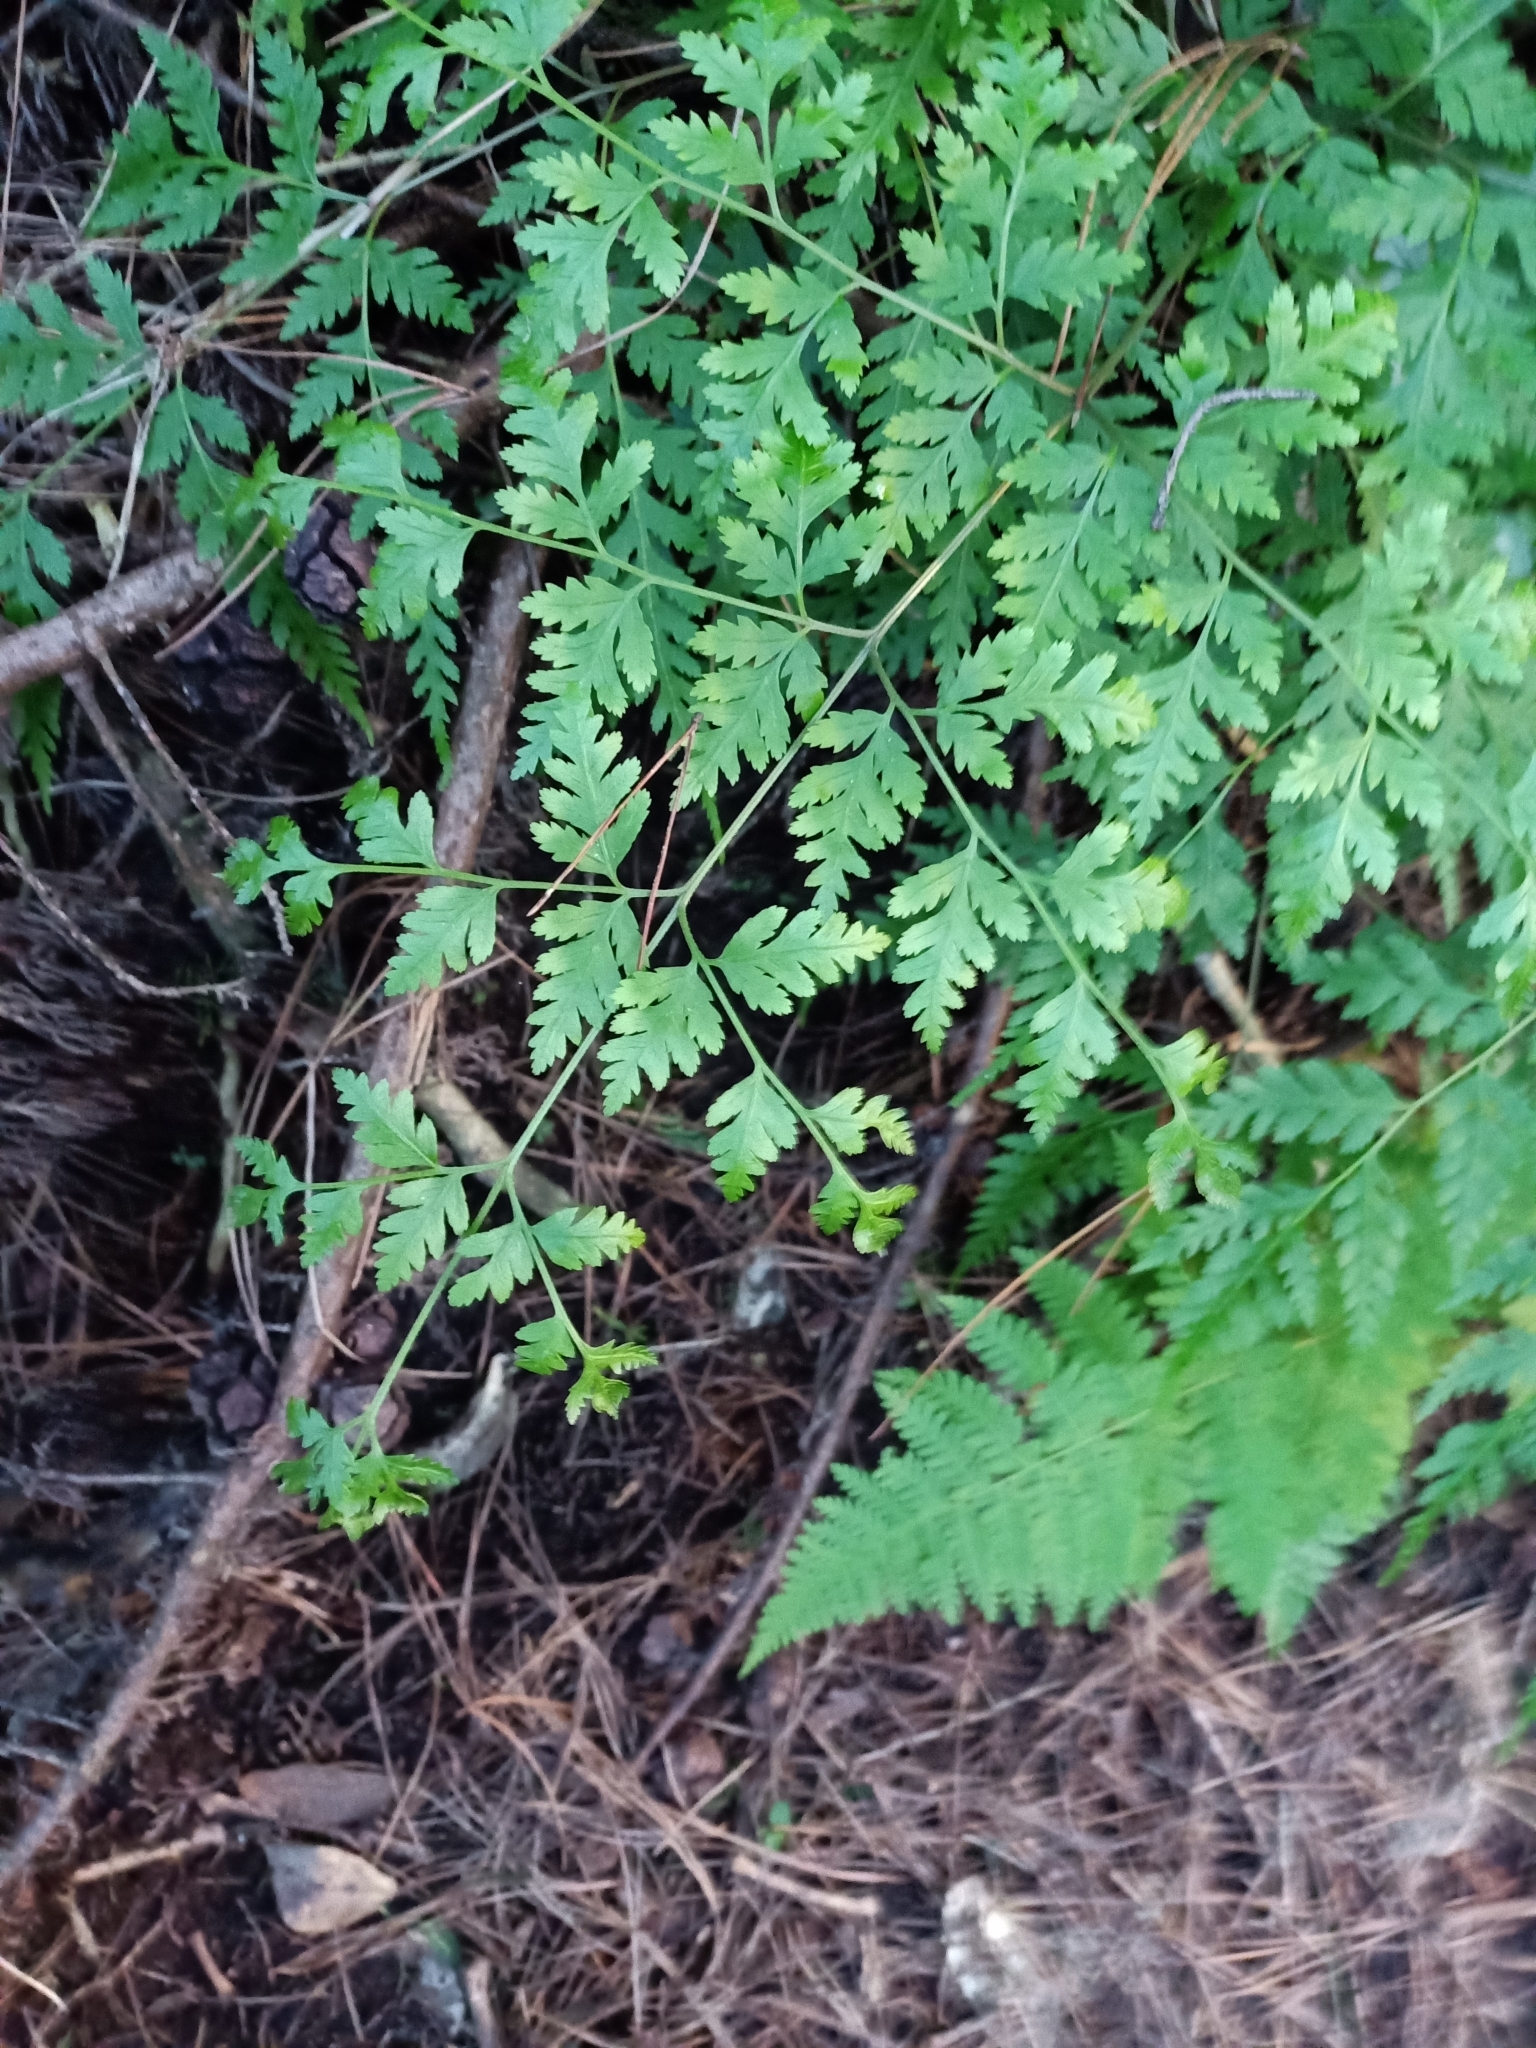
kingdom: Plantae
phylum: Tracheophyta
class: Polypodiopsida
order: Polypodiales
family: Pteridaceae
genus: Pteris
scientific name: Pteris macilenta
